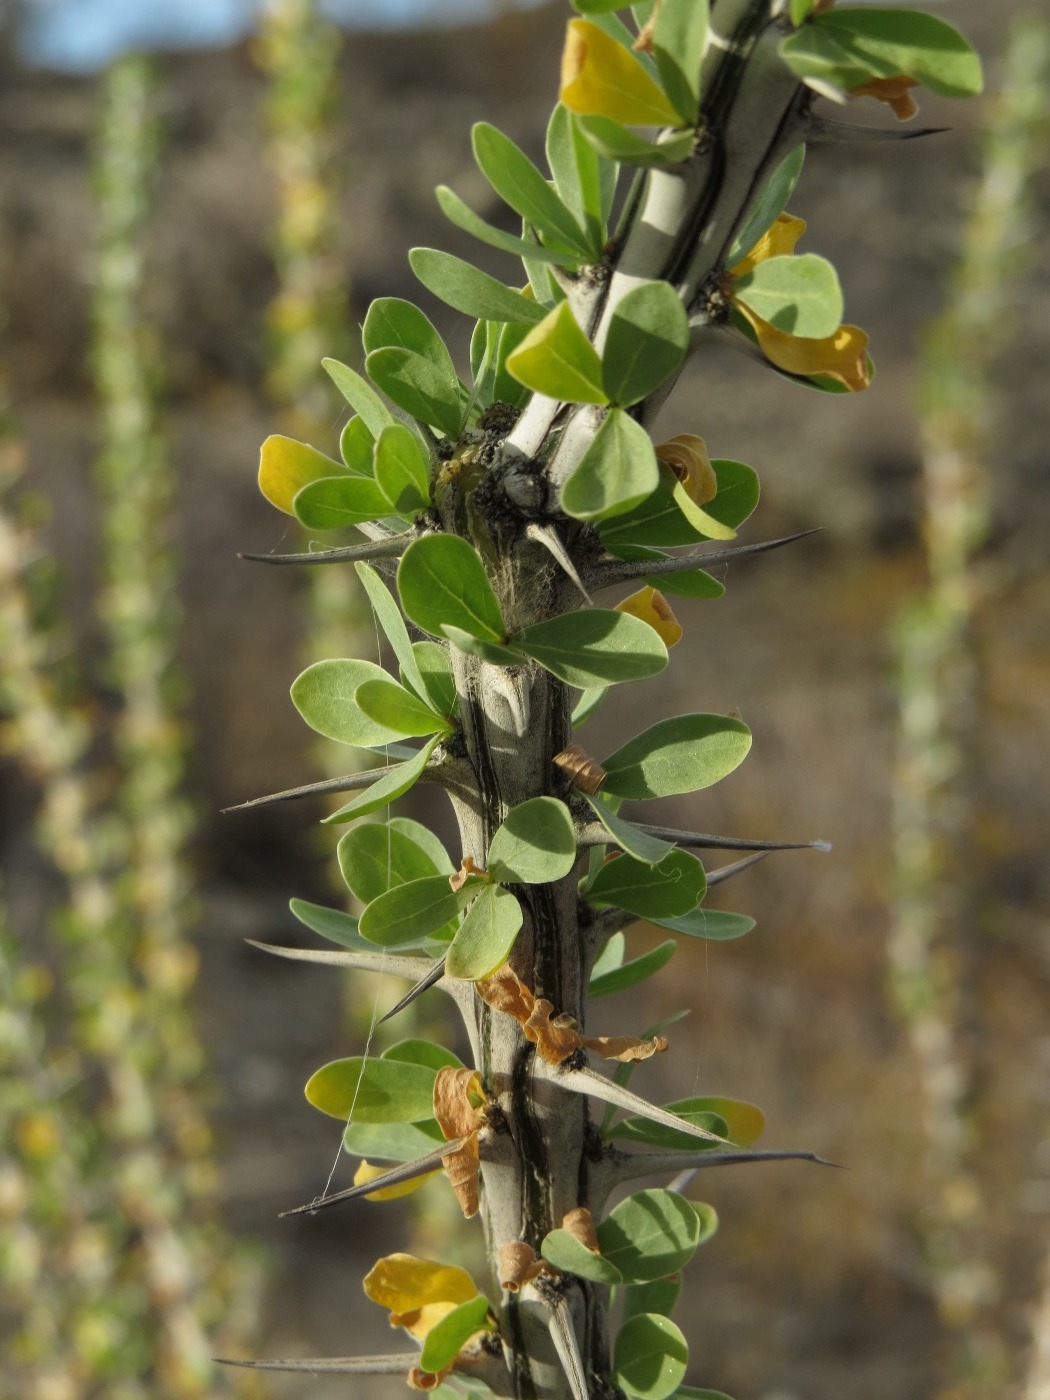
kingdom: Plantae
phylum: Tracheophyta
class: Magnoliopsida
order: Ericales
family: Fouquieriaceae
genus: Fouquieria
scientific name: Fouquieria splendens
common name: Vine-cactus
